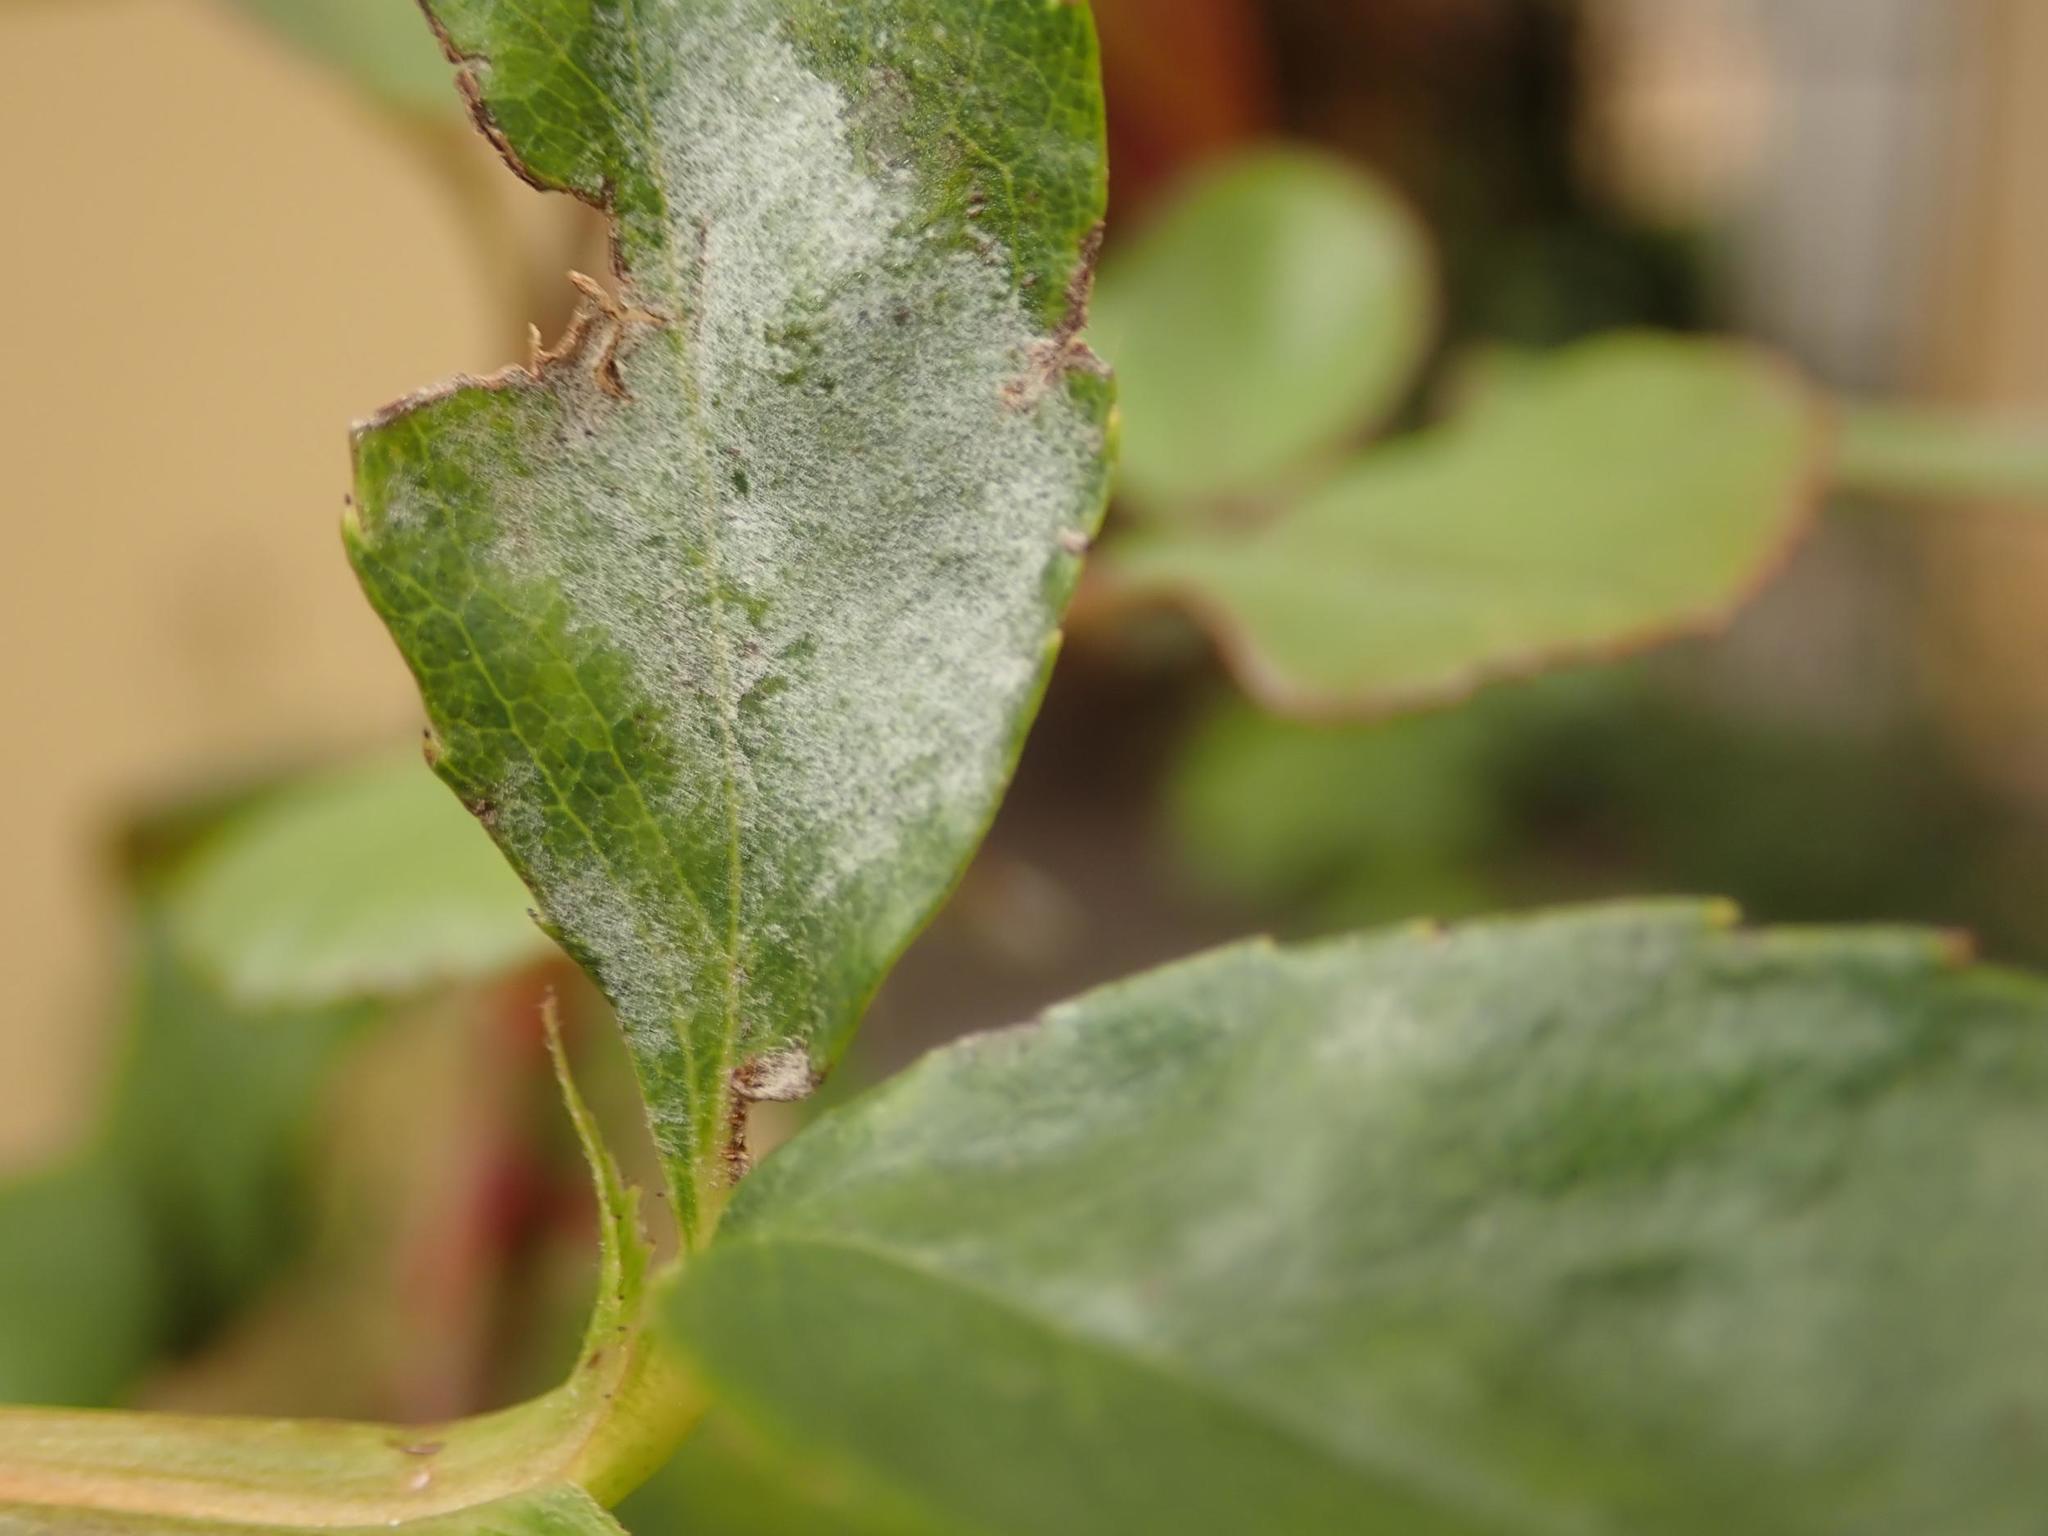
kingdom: Fungi
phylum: Ascomycota
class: Leotiomycetes
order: Helotiales
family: Erysiphaceae
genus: Podosphaera
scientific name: Podosphaera pannosa
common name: Rose mildew
